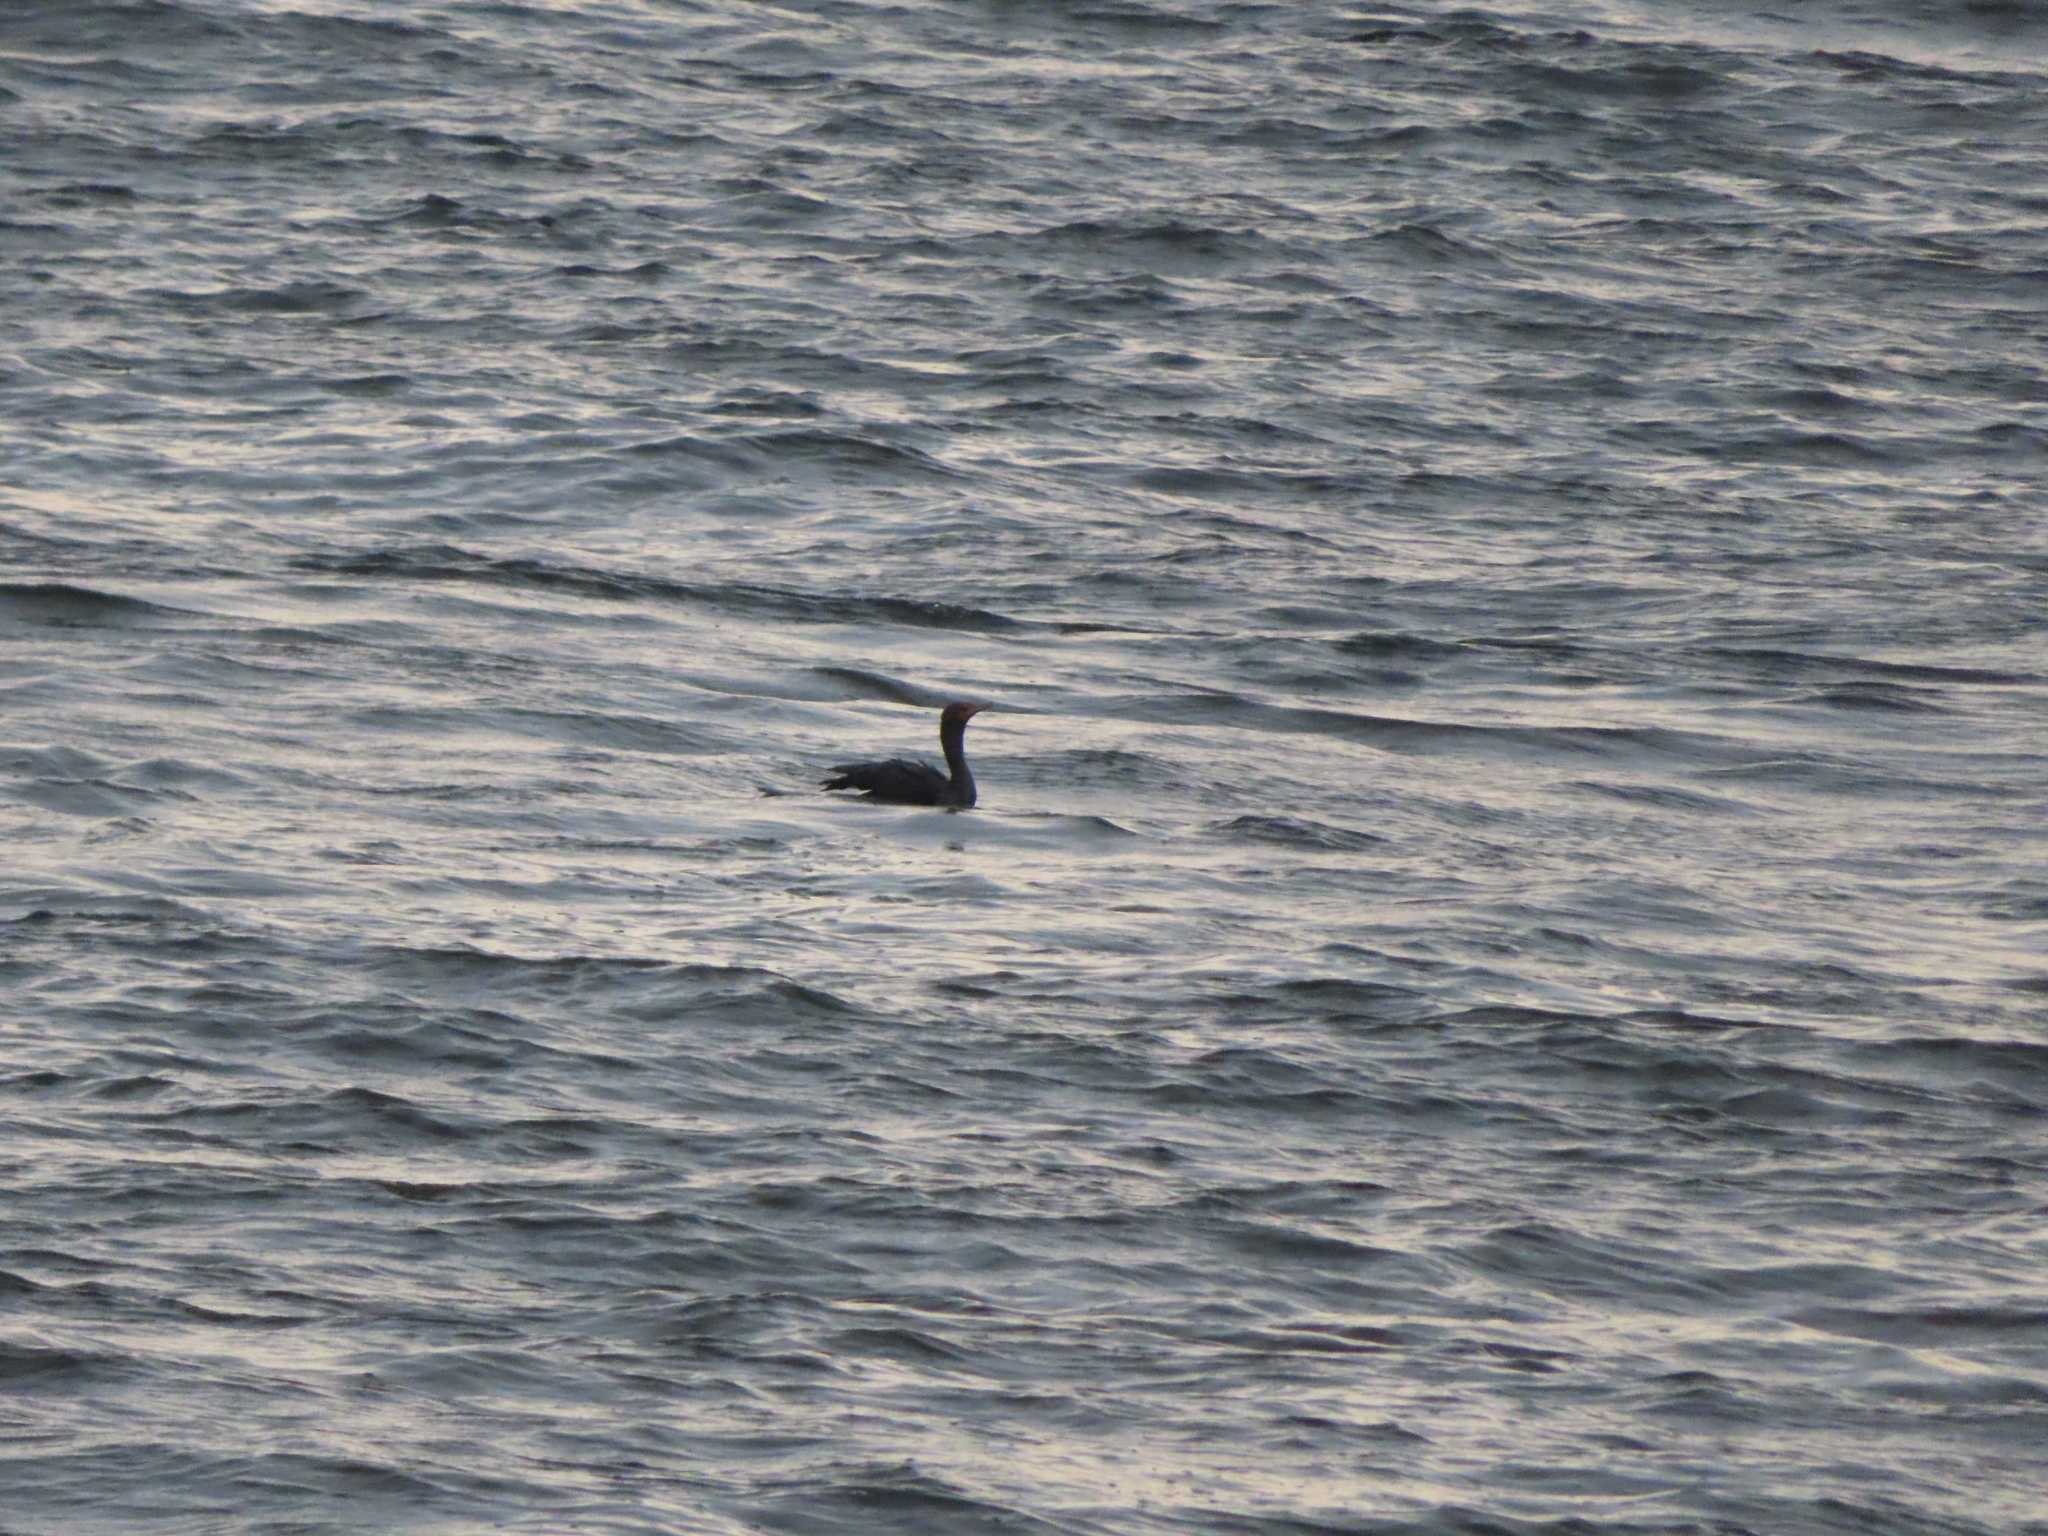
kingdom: Animalia
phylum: Chordata
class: Aves
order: Suliformes
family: Phalacrocoracidae
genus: Phalacrocorax
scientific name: Phalacrocorax auritus
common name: Double-crested cormorant
